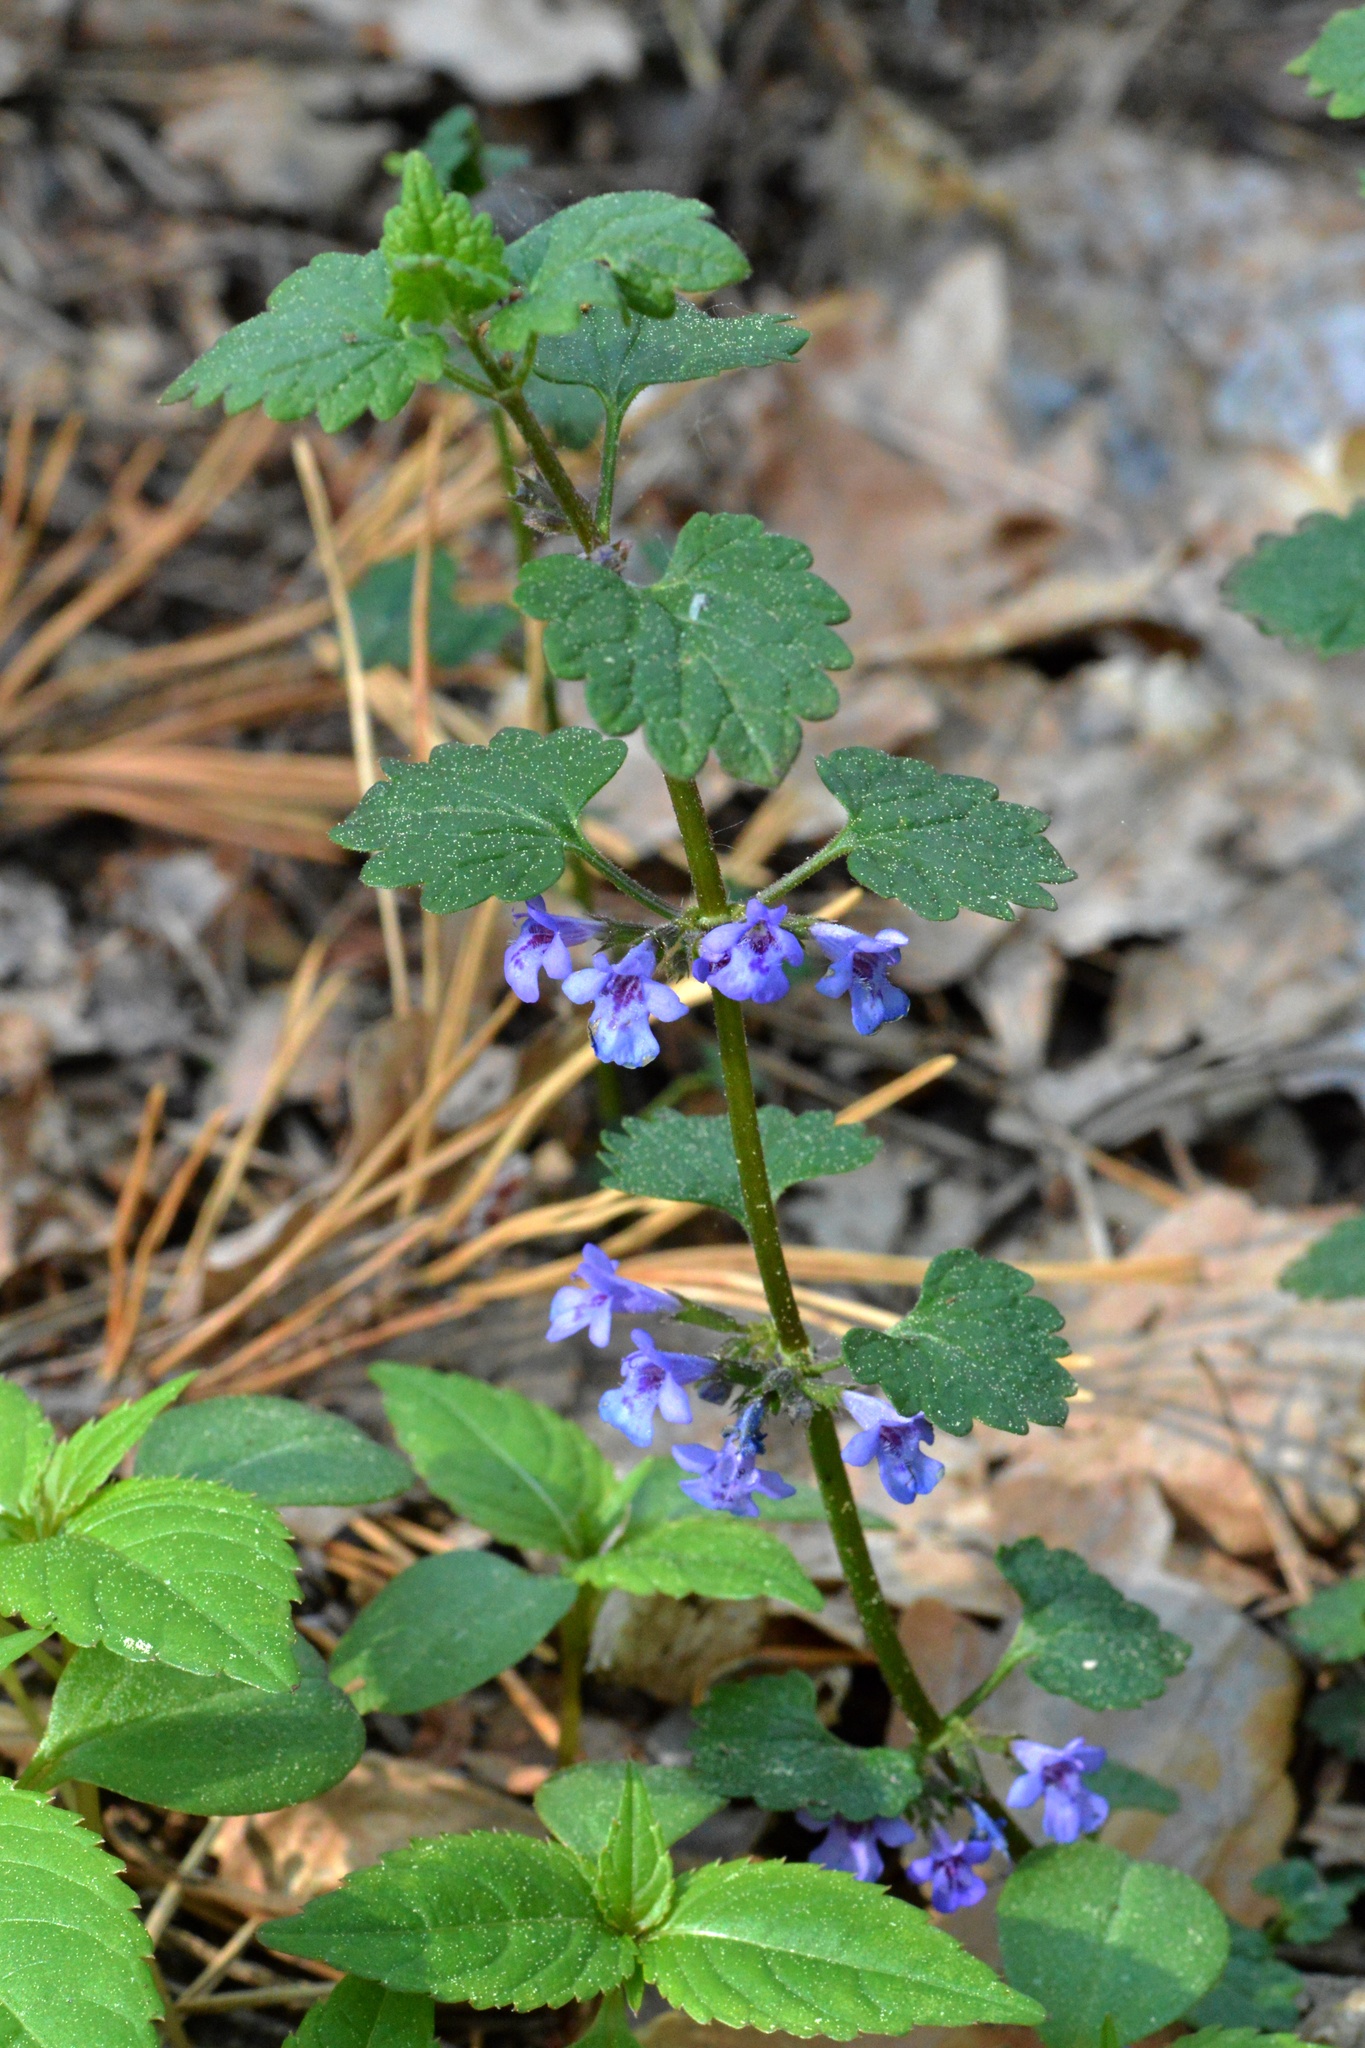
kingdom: Plantae
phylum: Tracheophyta
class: Magnoliopsida
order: Lamiales
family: Lamiaceae
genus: Glechoma
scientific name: Glechoma hederacea
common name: Ground ivy
